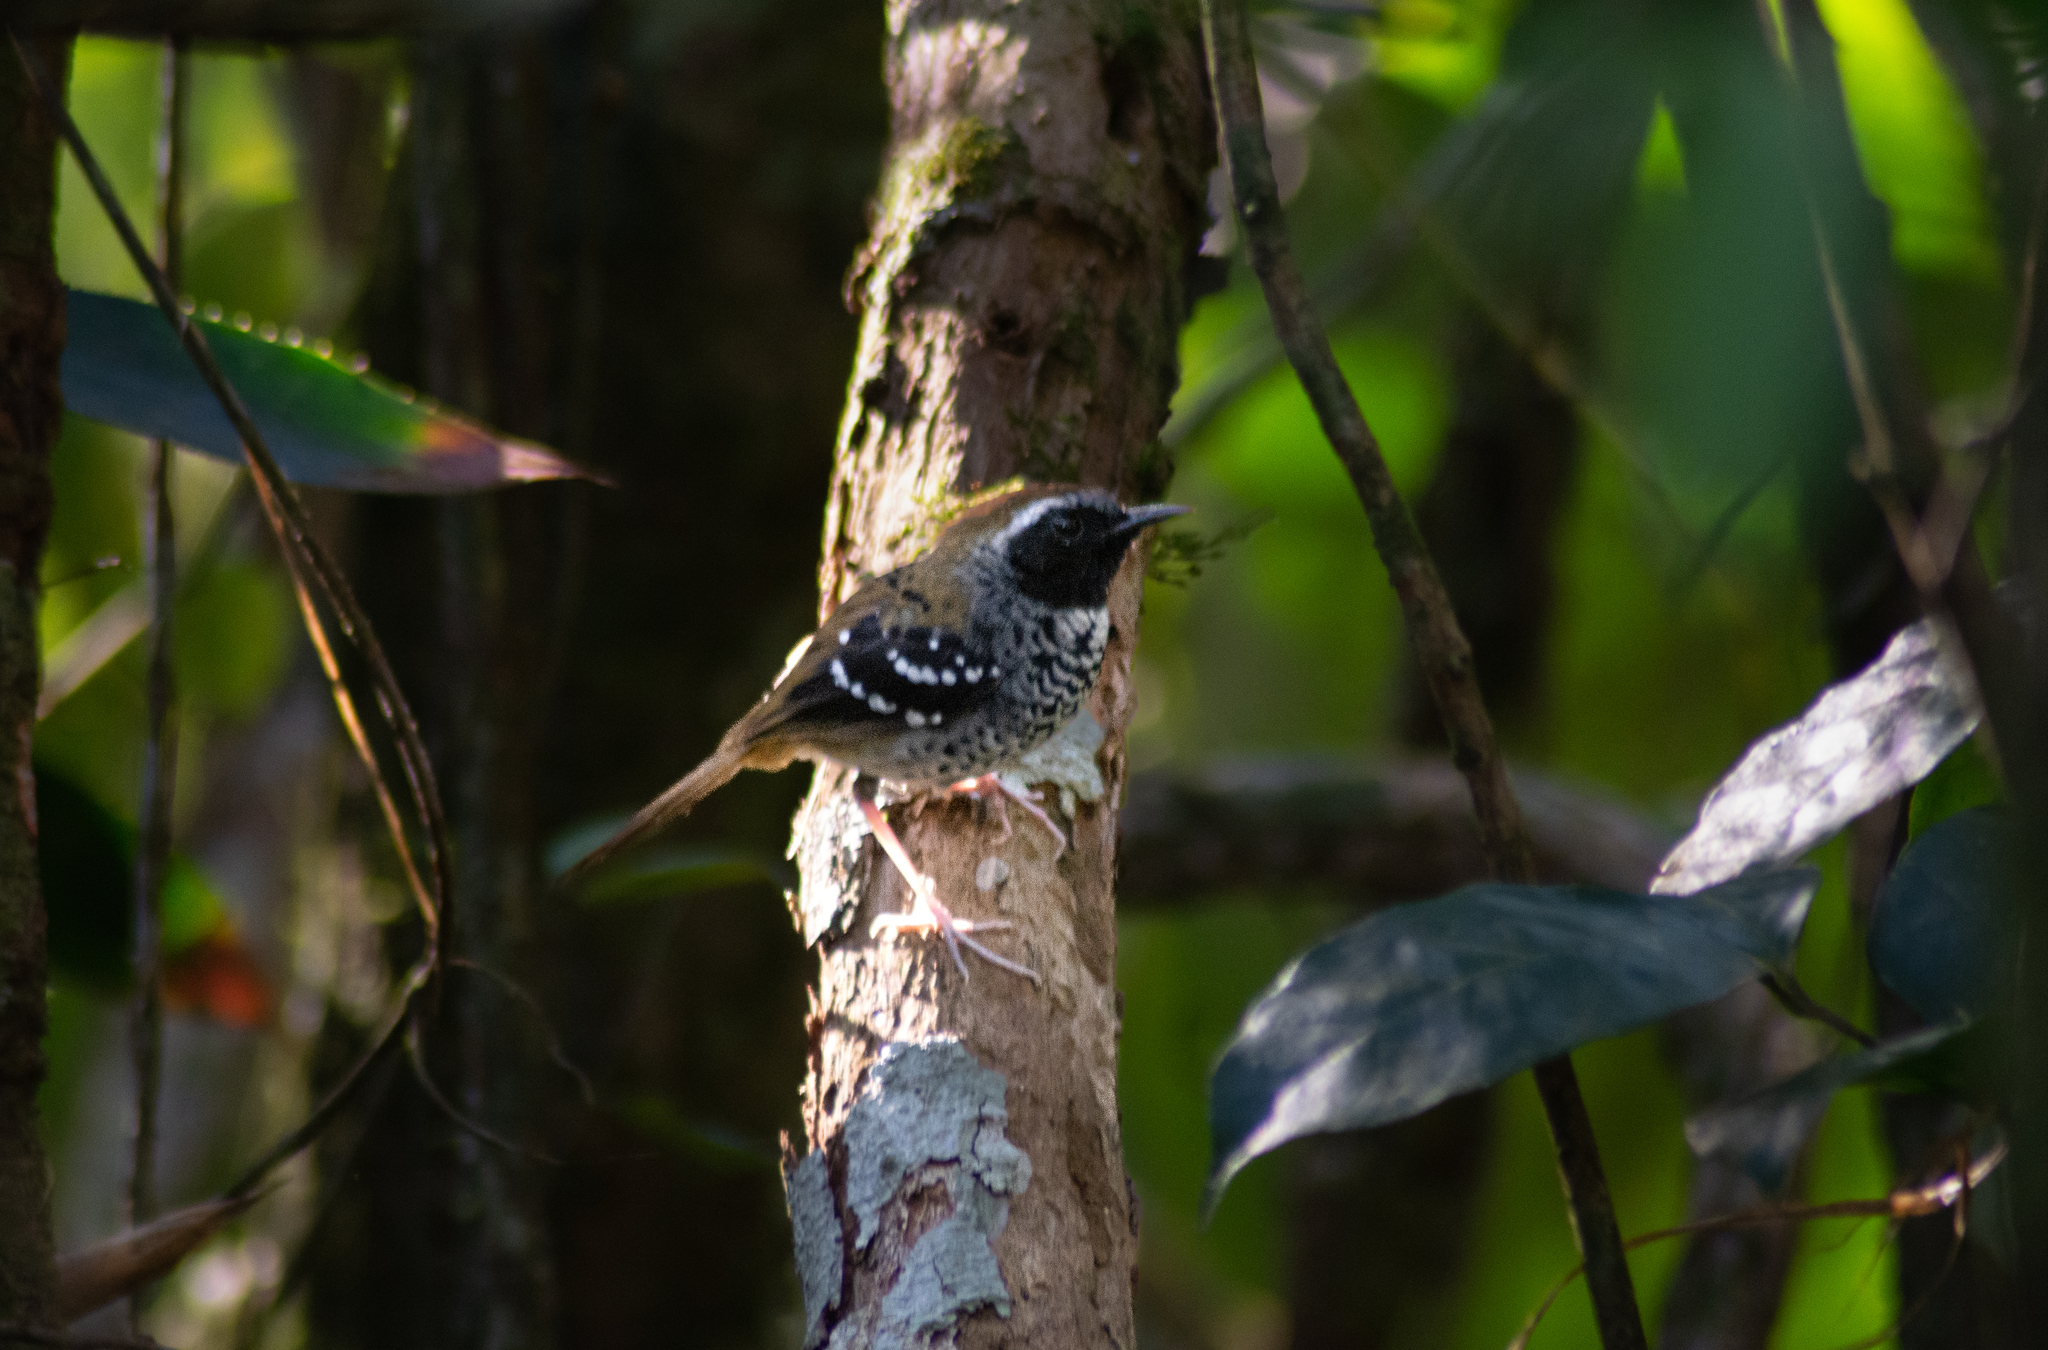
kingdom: Animalia
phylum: Chordata
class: Aves
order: Passeriformes
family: Thamnophilidae
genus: Myrmeciza
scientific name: Myrmeciza squamosa
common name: Squamate antbird
